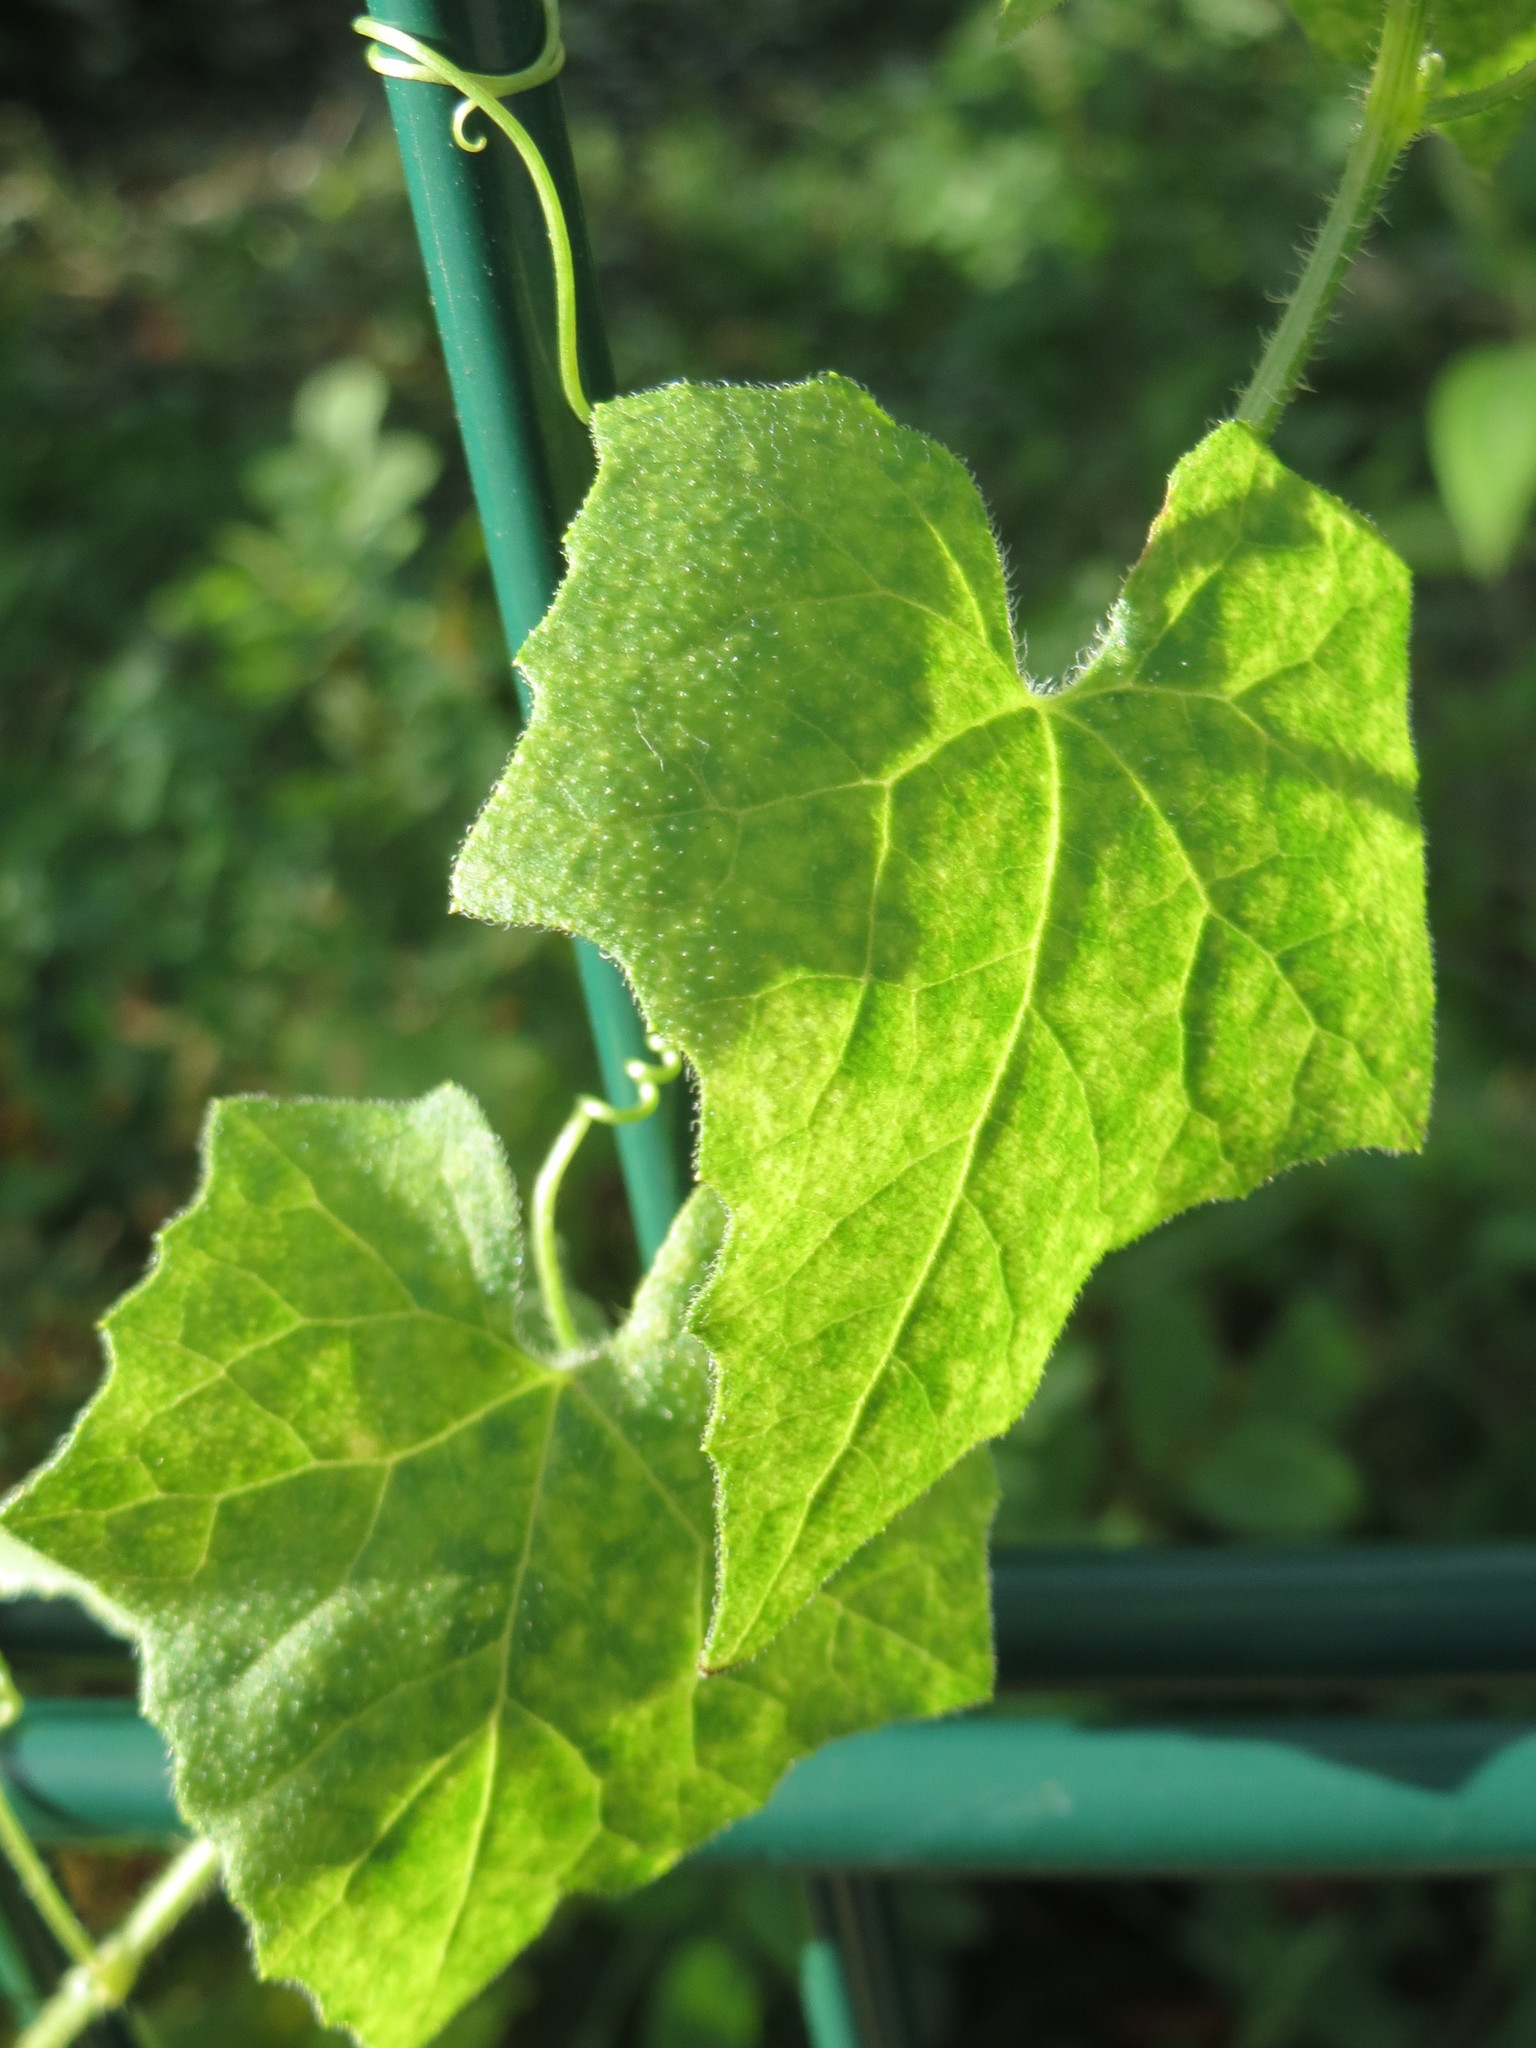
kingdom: Plantae
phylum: Tracheophyta
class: Magnoliopsida
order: Cucurbitales
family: Cucurbitaceae
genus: Bryonia
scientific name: Bryonia dioica
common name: White bryony
